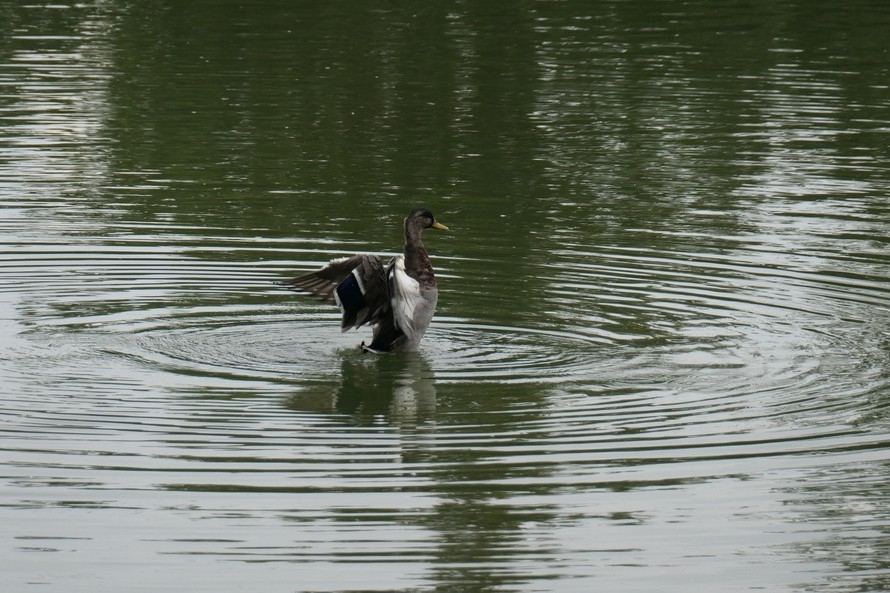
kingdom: Animalia
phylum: Chordata
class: Aves
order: Anseriformes
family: Anatidae
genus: Anas
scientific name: Anas platyrhynchos
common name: Mallard
